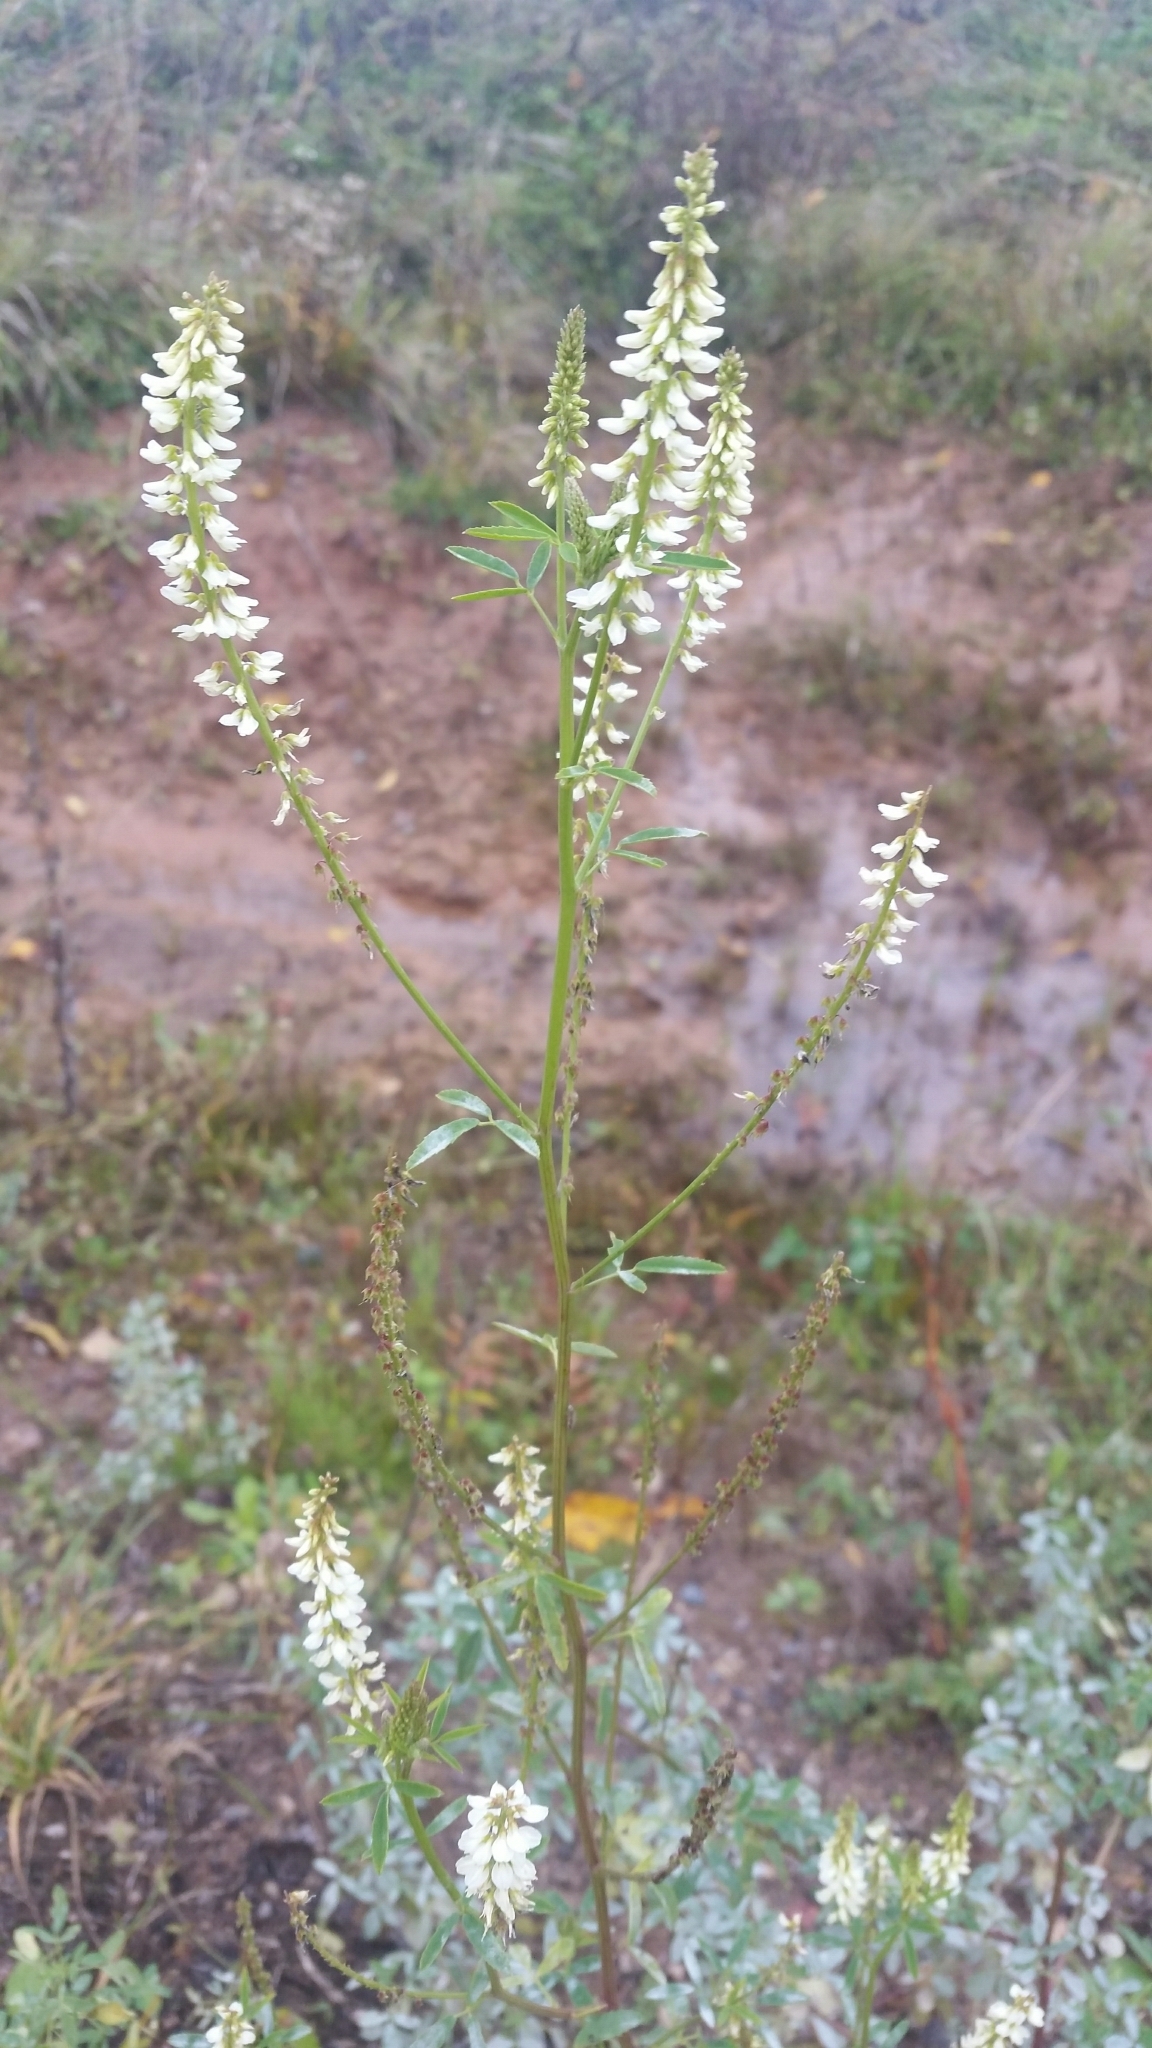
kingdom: Plantae
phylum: Tracheophyta
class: Magnoliopsida
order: Fabales
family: Fabaceae
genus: Melilotus
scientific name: Melilotus albus
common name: White melilot
